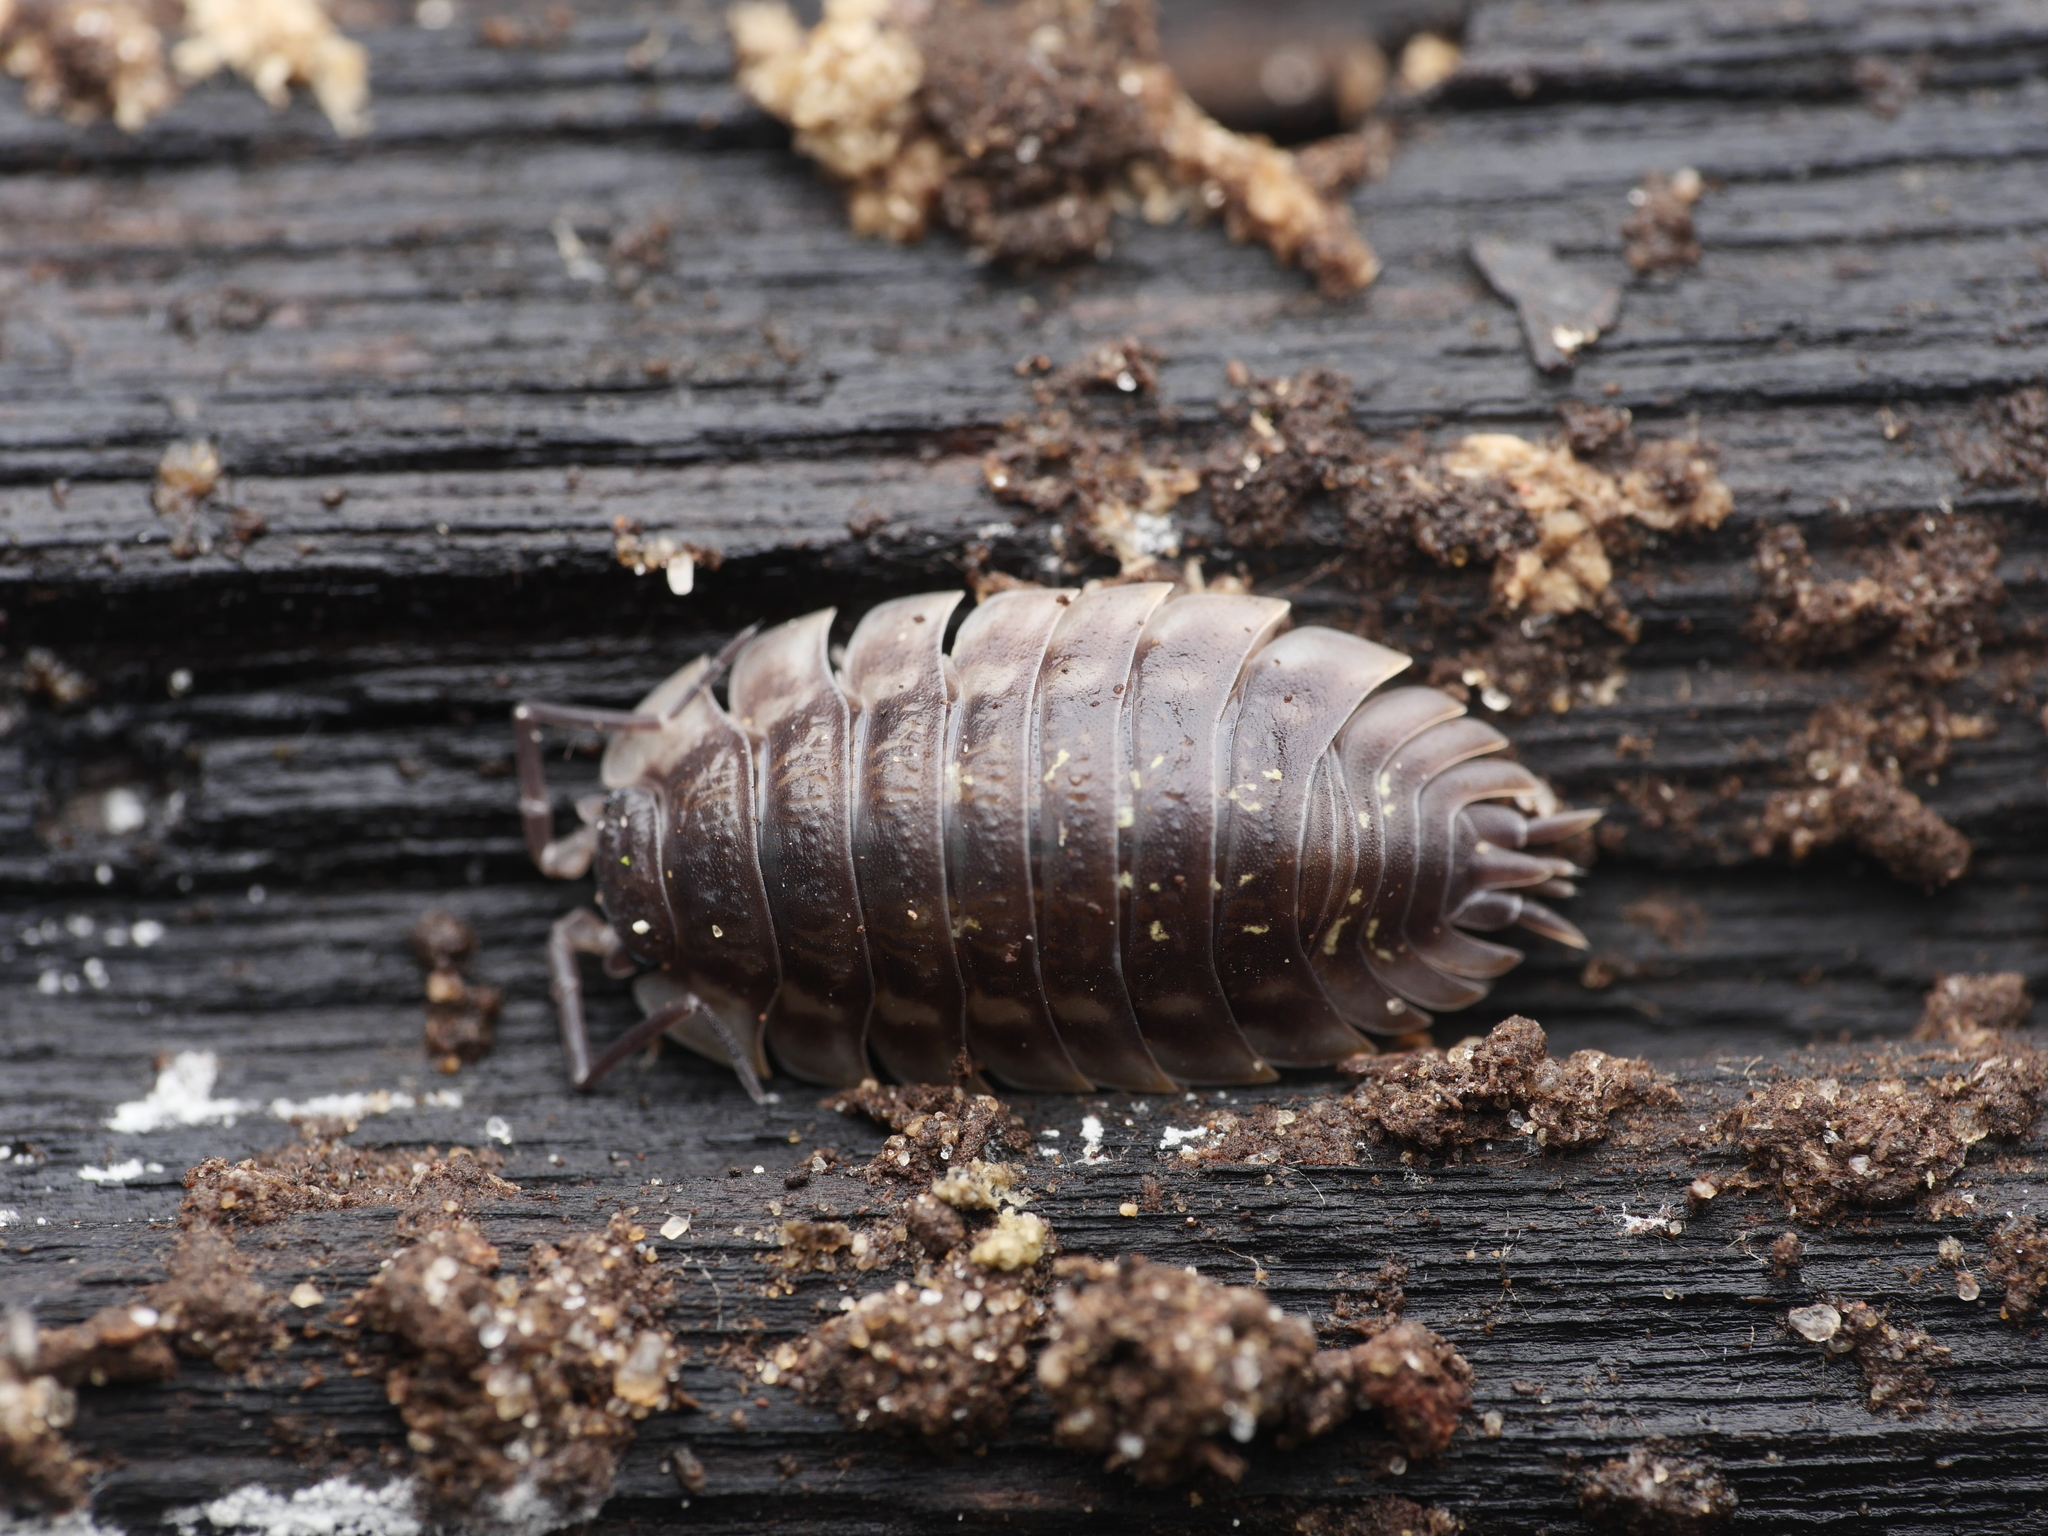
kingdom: Animalia
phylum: Arthropoda
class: Malacostraca
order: Isopoda
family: Oniscidae
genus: Oniscus
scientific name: Oniscus asellus
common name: Common shiny woodlouse
